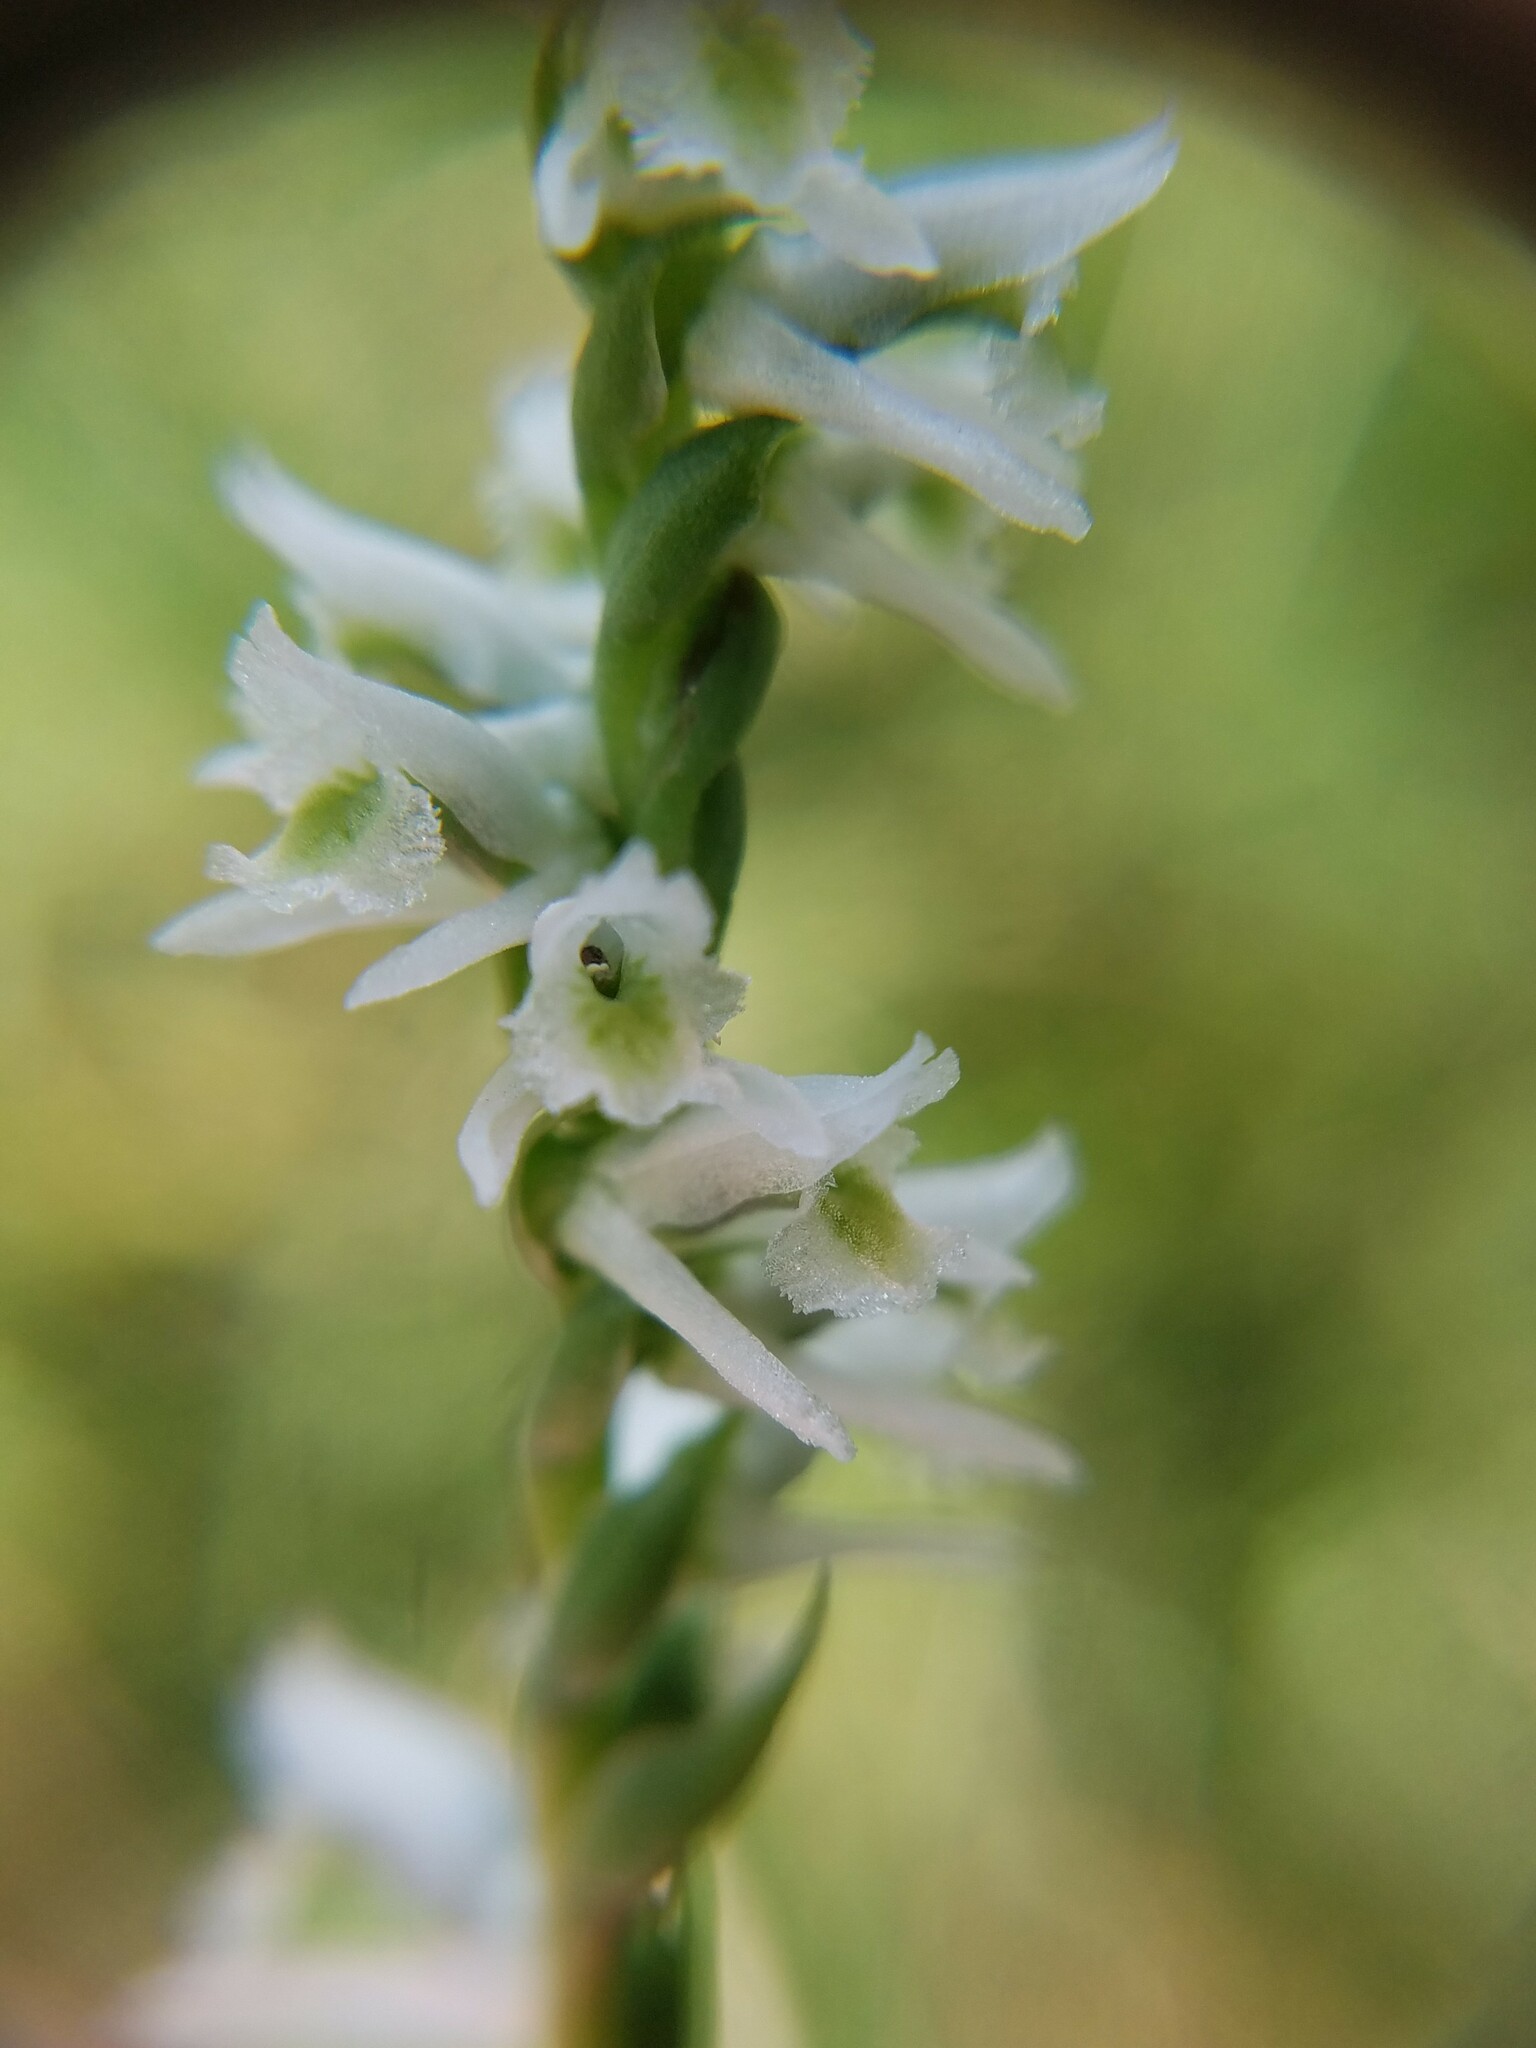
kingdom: Plantae
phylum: Tracheophyta
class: Liliopsida
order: Asparagales
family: Orchidaceae
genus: Spiranthes
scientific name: Spiranthes lacera
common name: Northern slender ladies'-tresses
